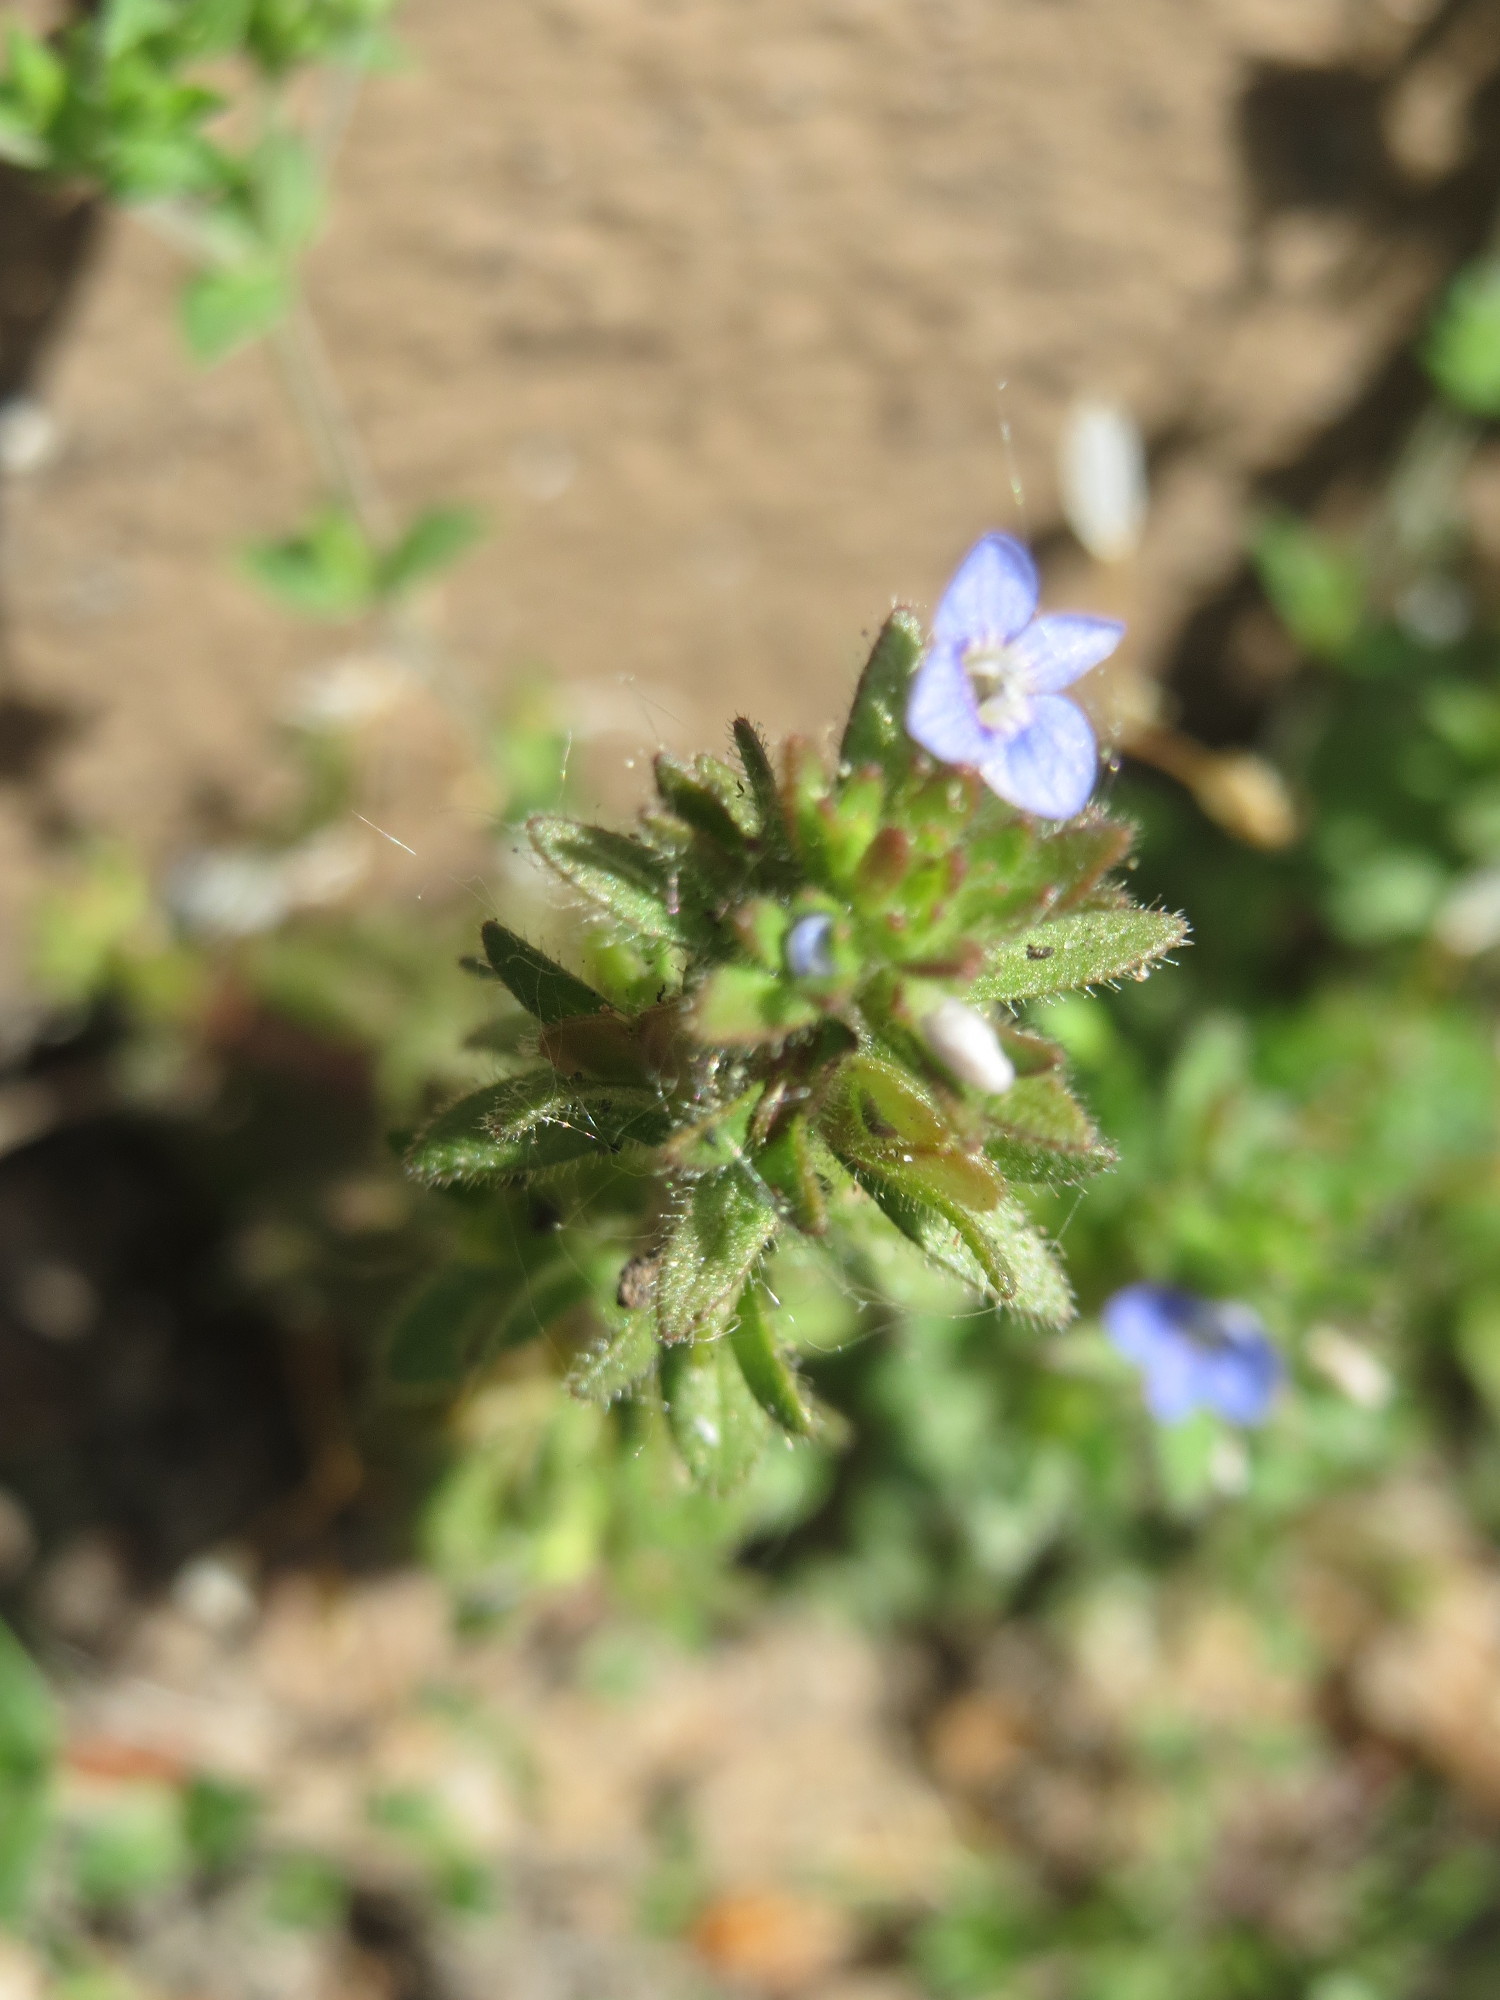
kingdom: Plantae
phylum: Tracheophyta
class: Magnoliopsida
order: Lamiales
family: Plantaginaceae
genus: Veronica
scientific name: Veronica arvensis
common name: Corn speedwell
